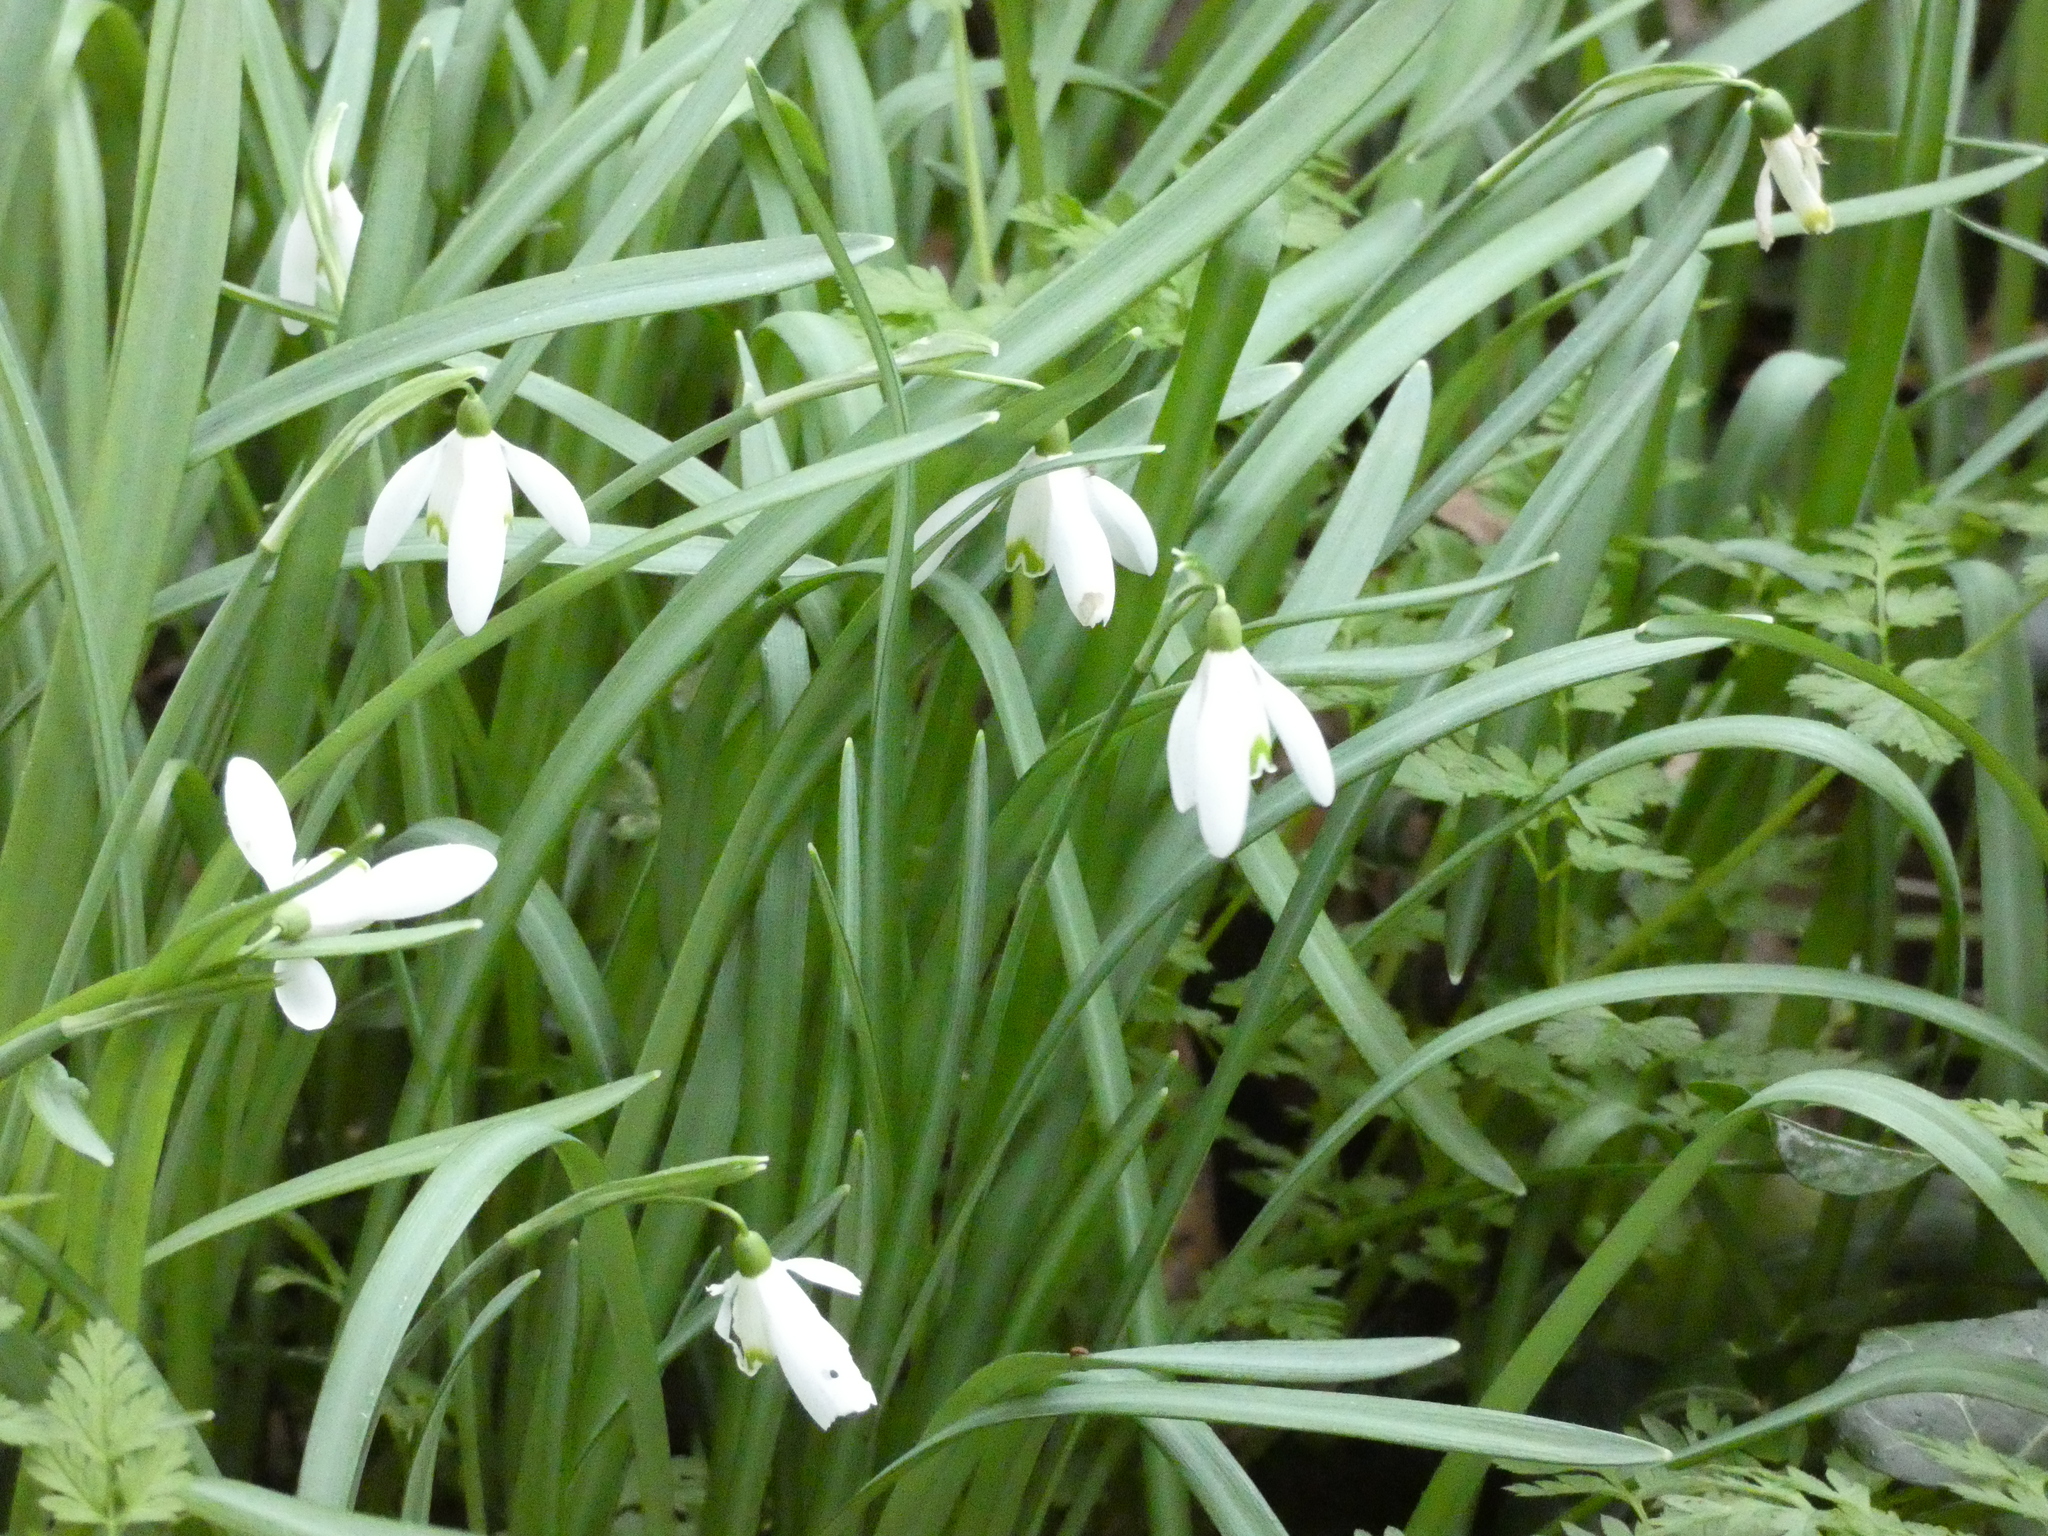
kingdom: Plantae
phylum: Tracheophyta
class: Liliopsida
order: Asparagales
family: Amaryllidaceae
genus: Galanthus
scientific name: Galanthus nivalis
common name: Snowdrop
